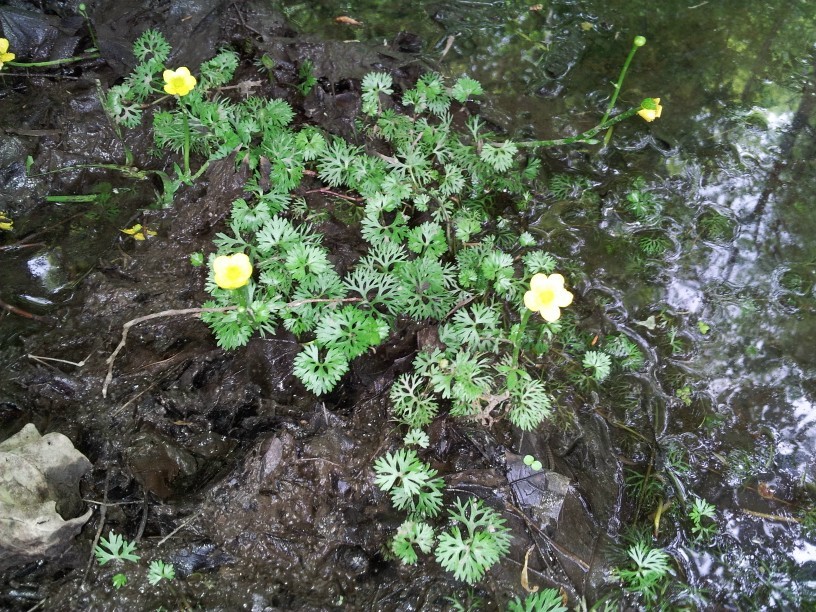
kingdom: Plantae
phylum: Tracheophyta
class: Magnoliopsida
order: Ranunculales
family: Ranunculaceae
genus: Ranunculus
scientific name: Ranunculus flabellaris
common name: Yellow water-crowfoot
